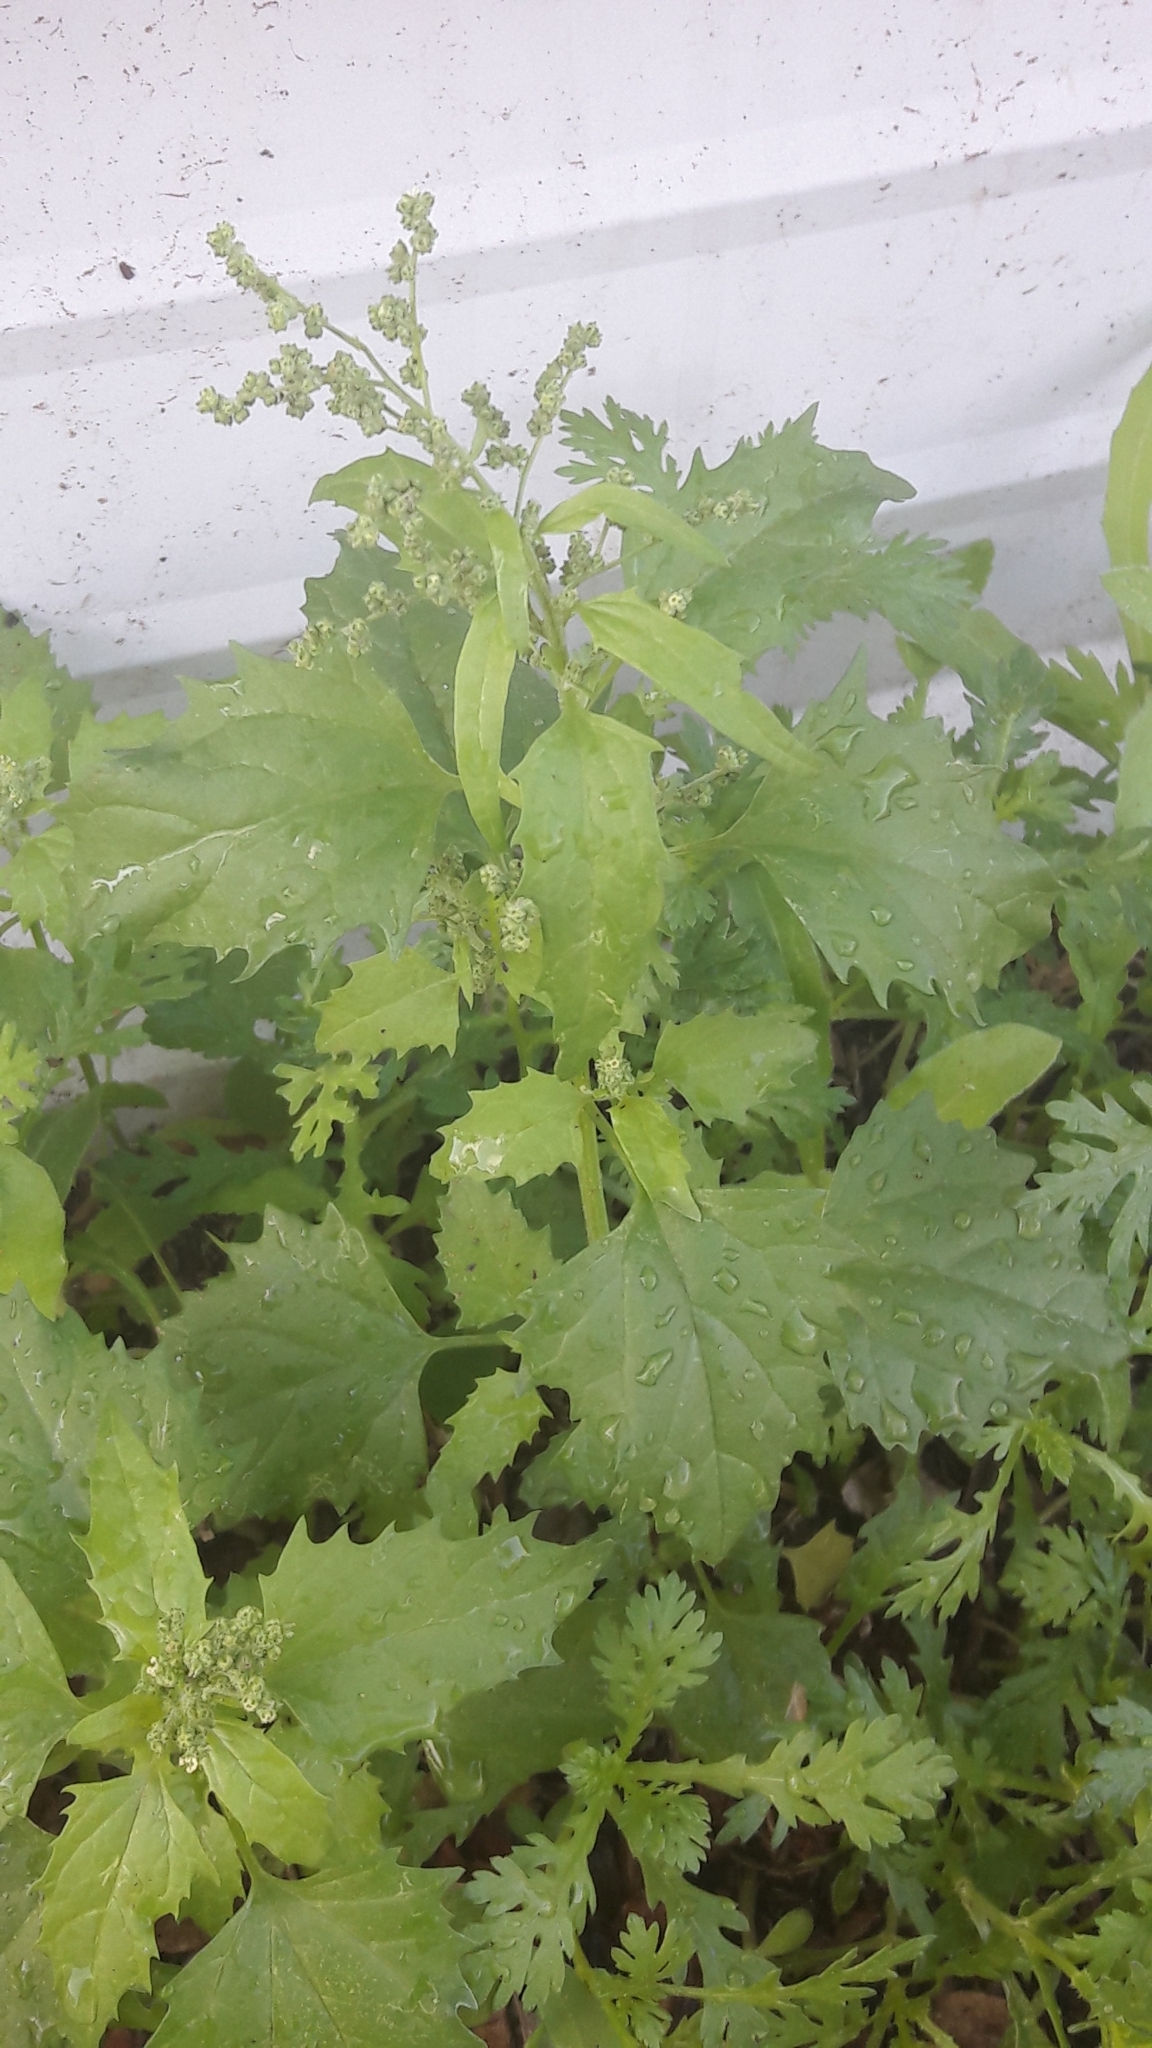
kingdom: Plantae
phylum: Tracheophyta
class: Magnoliopsida
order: Caryophyllales
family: Amaranthaceae
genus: Chenopodiastrum
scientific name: Chenopodiastrum murale
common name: Sowbane
